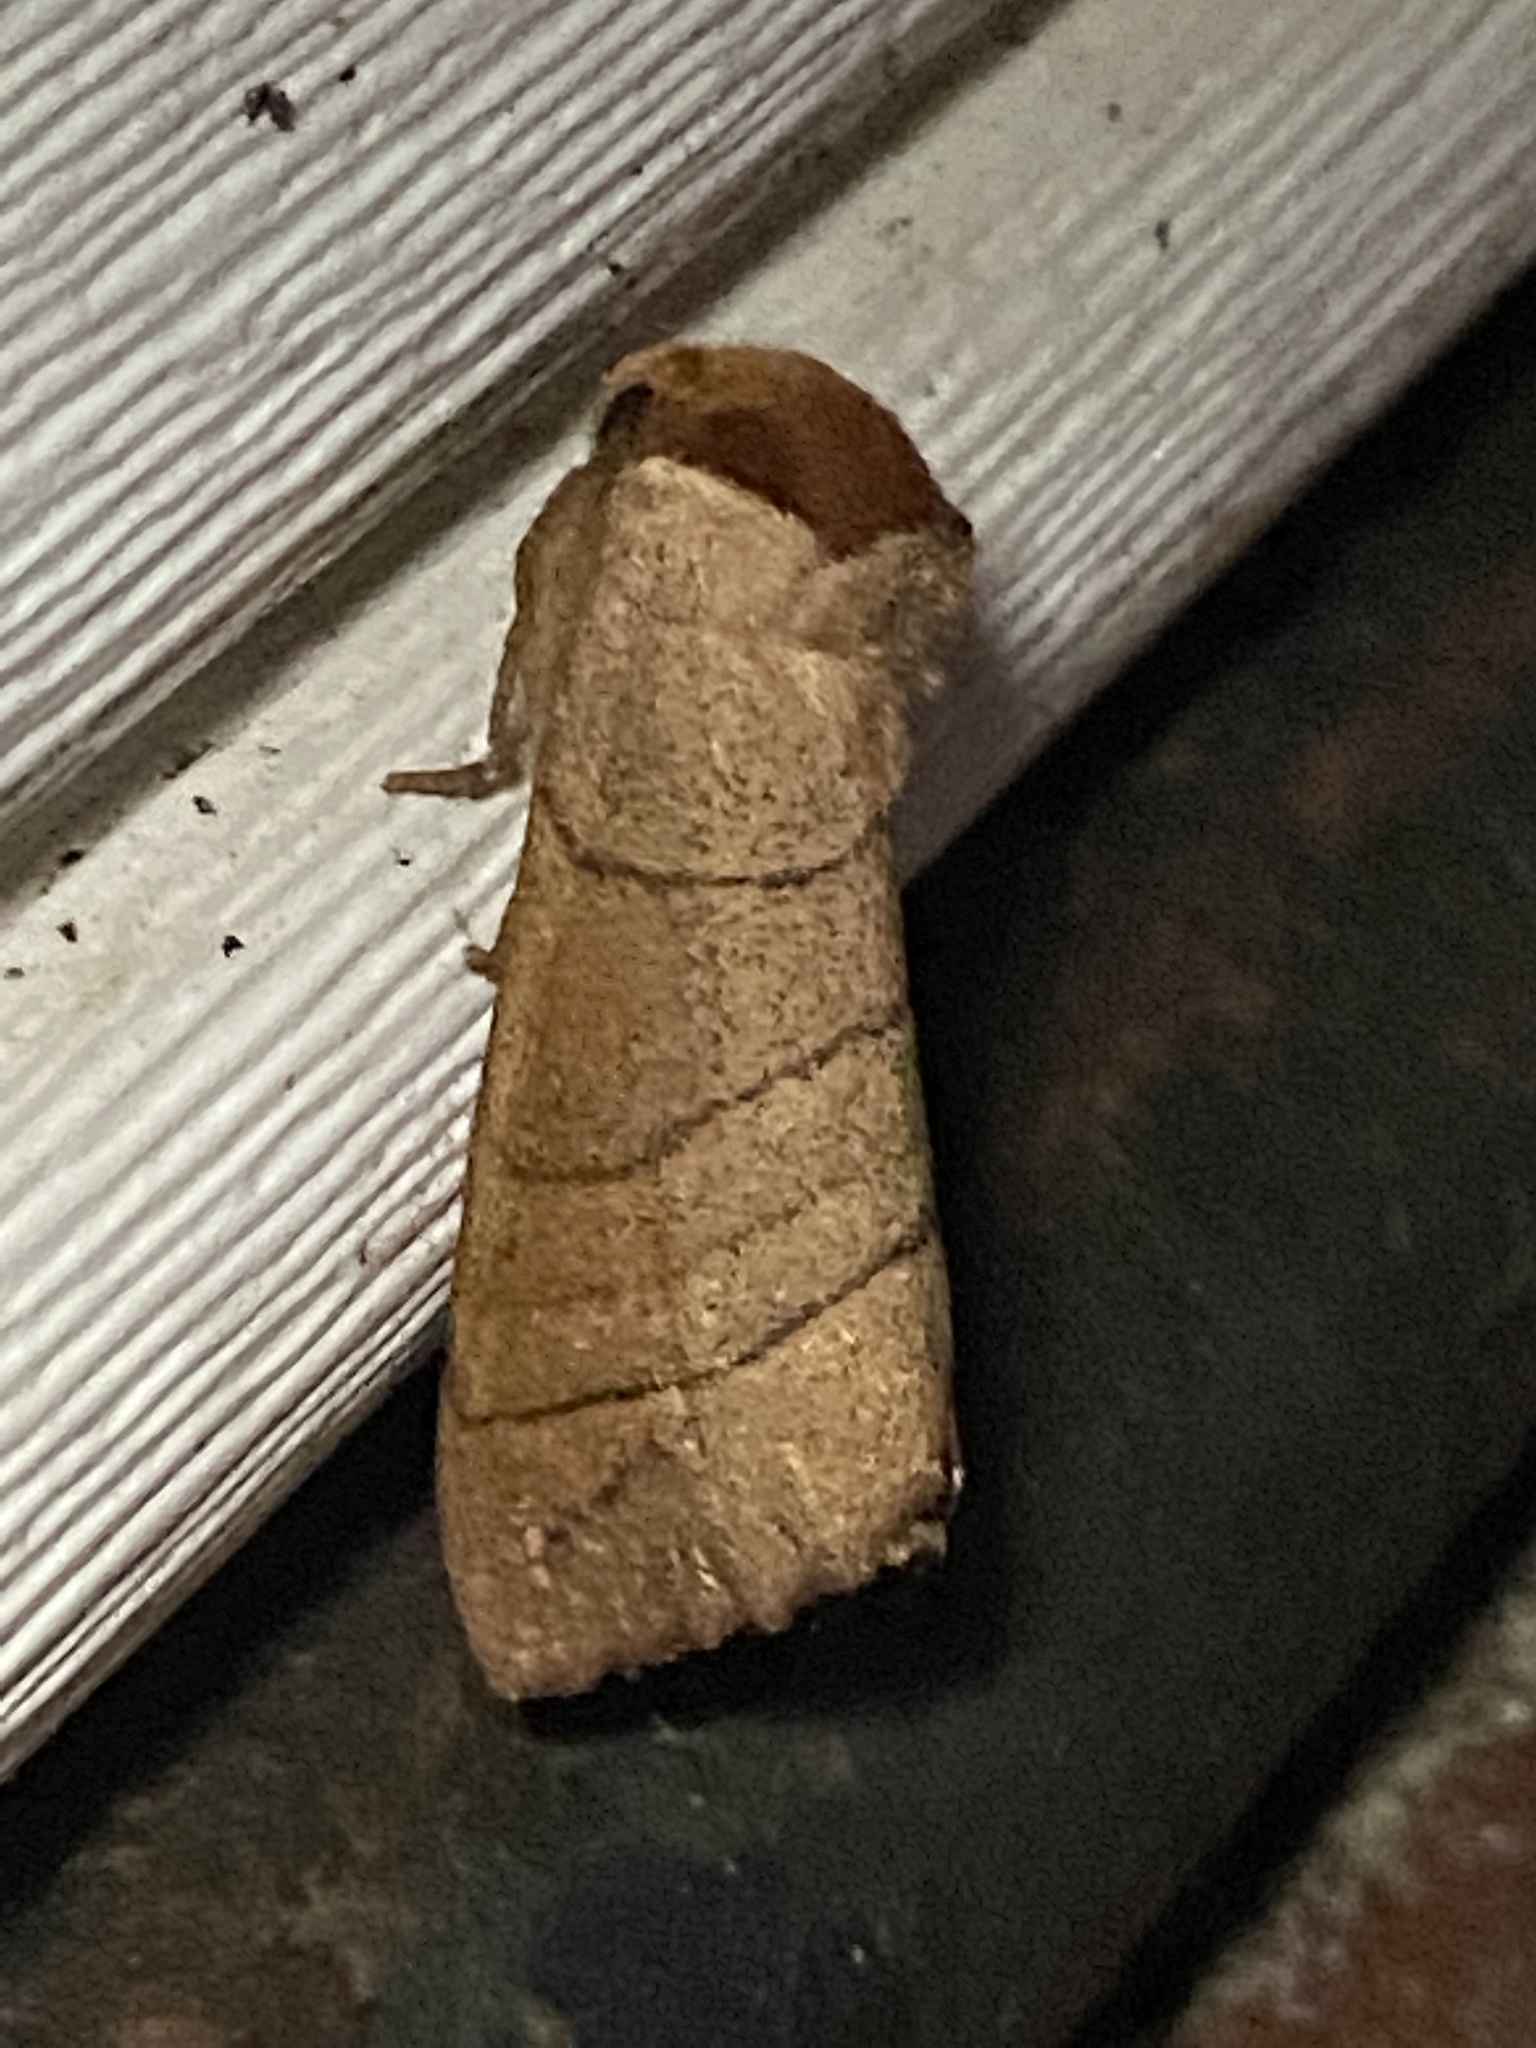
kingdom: Animalia
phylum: Arthropoda
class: Insecta
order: Lepidoptera
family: Notodontidae
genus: Datana
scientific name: Datana ministra
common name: Yellow-necked caterpillar moth
